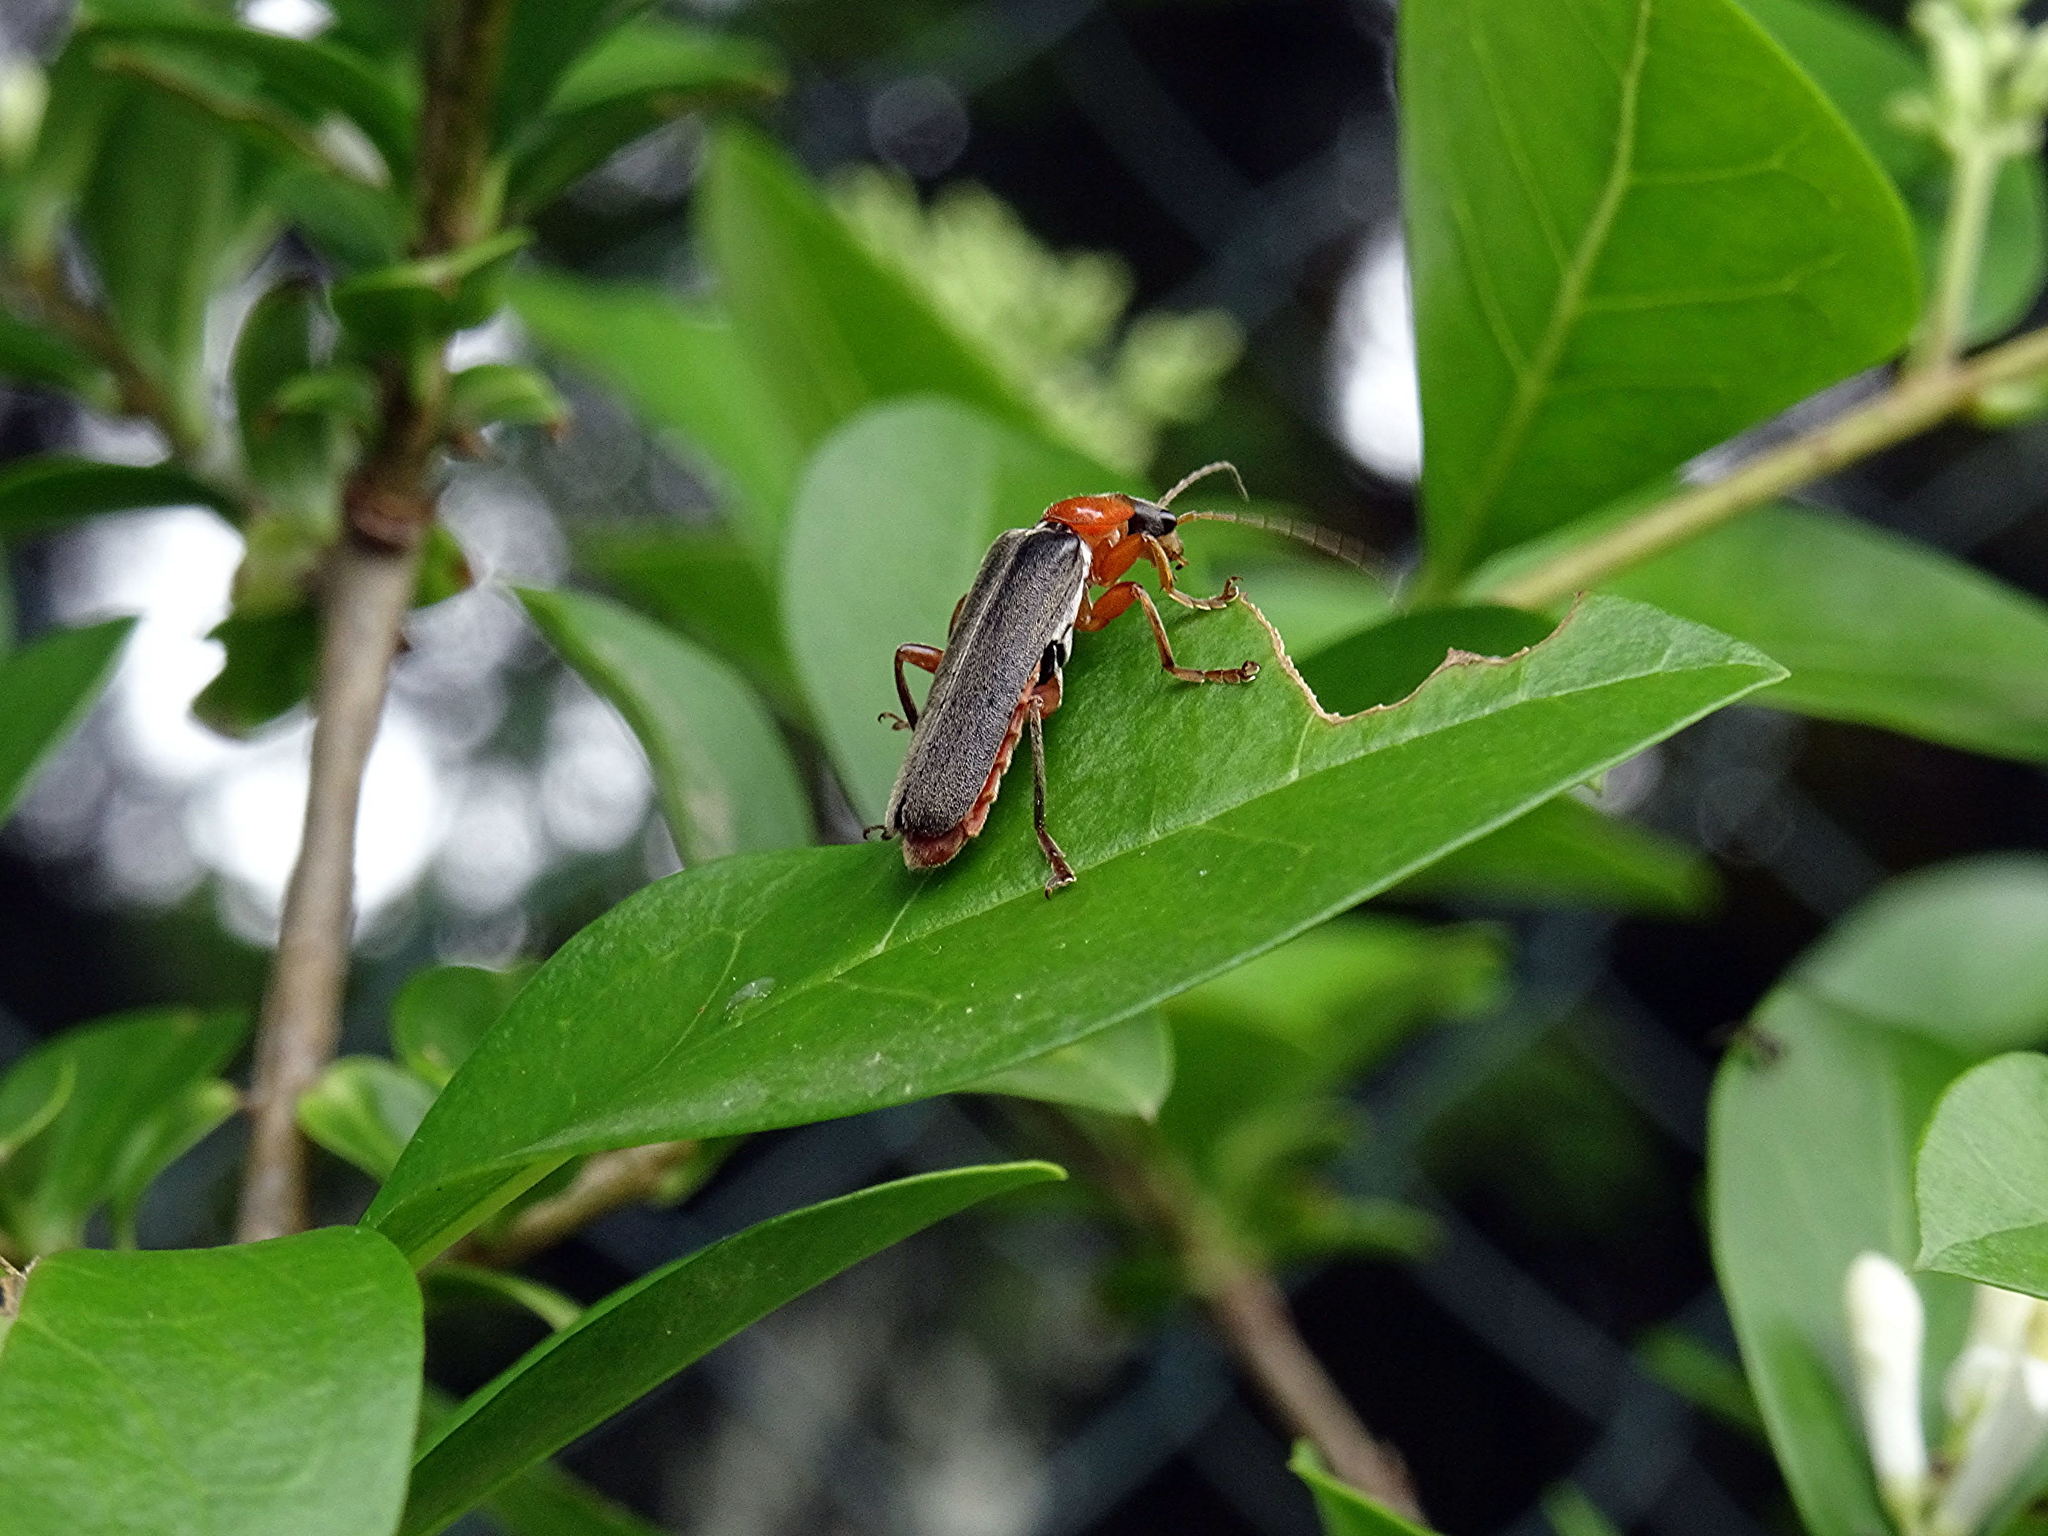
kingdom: Animalia
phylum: Arthropoda
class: Insecta
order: Coleoptera
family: Cantharidae
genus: Cantharis
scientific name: Cantharis pellucida
